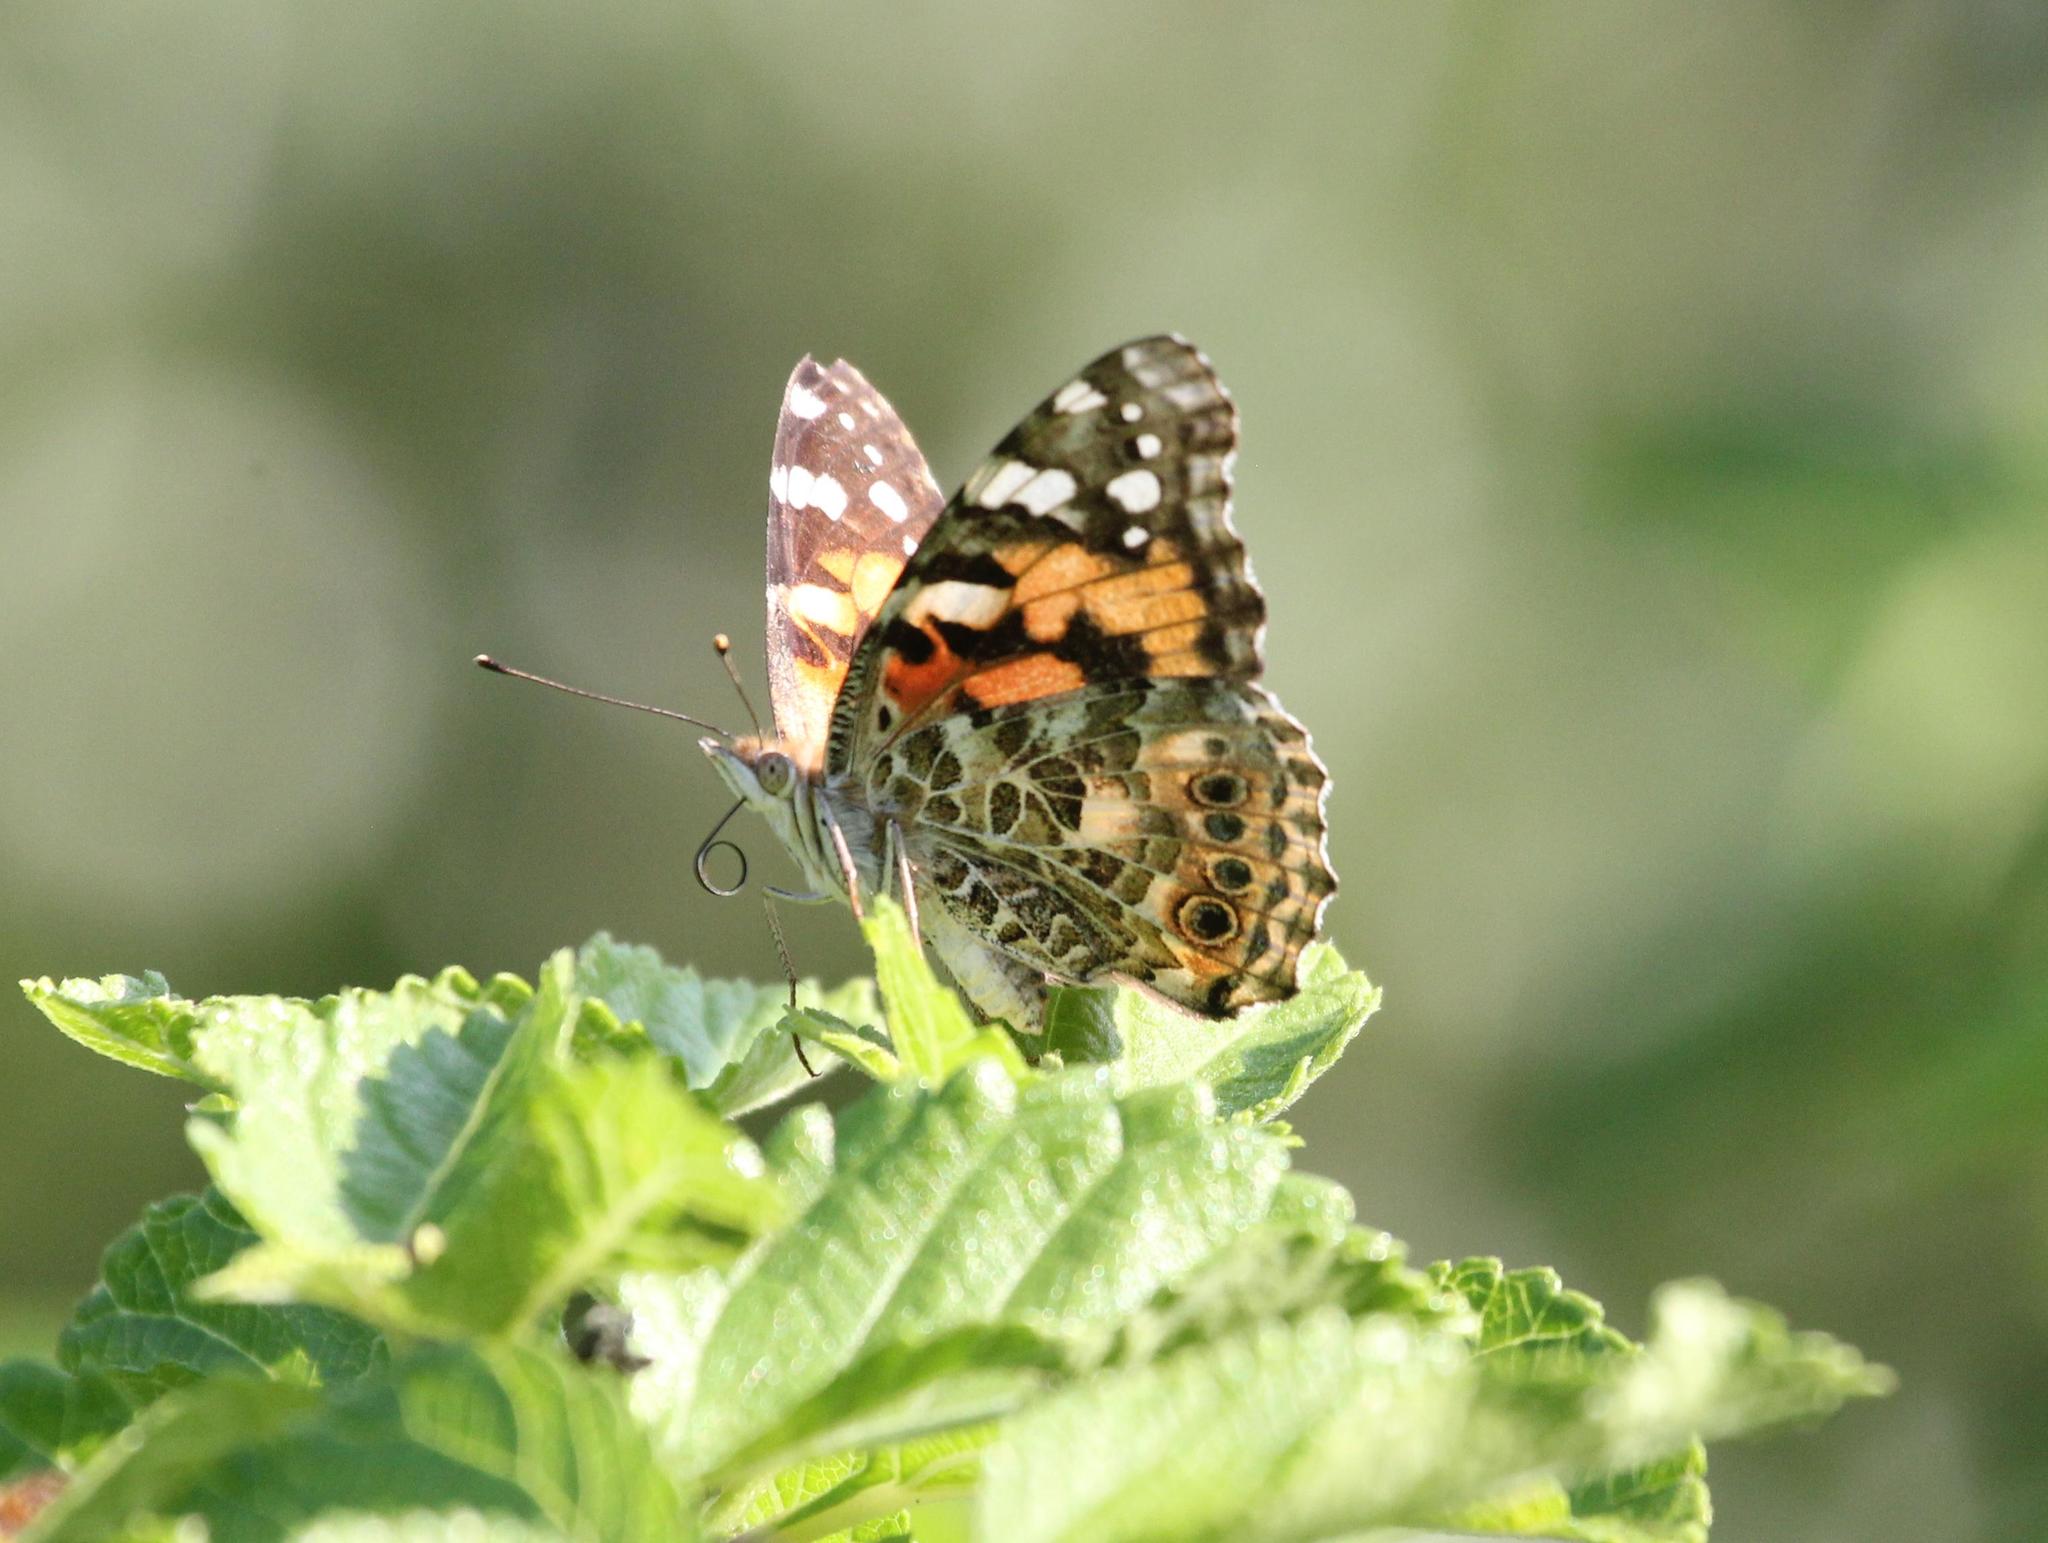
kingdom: Animalia
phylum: Arthropoda
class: Insecta
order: Lepidoptera
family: Nymphalidae
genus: Vanessa
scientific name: Vanessa cardui
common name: Painted lady
